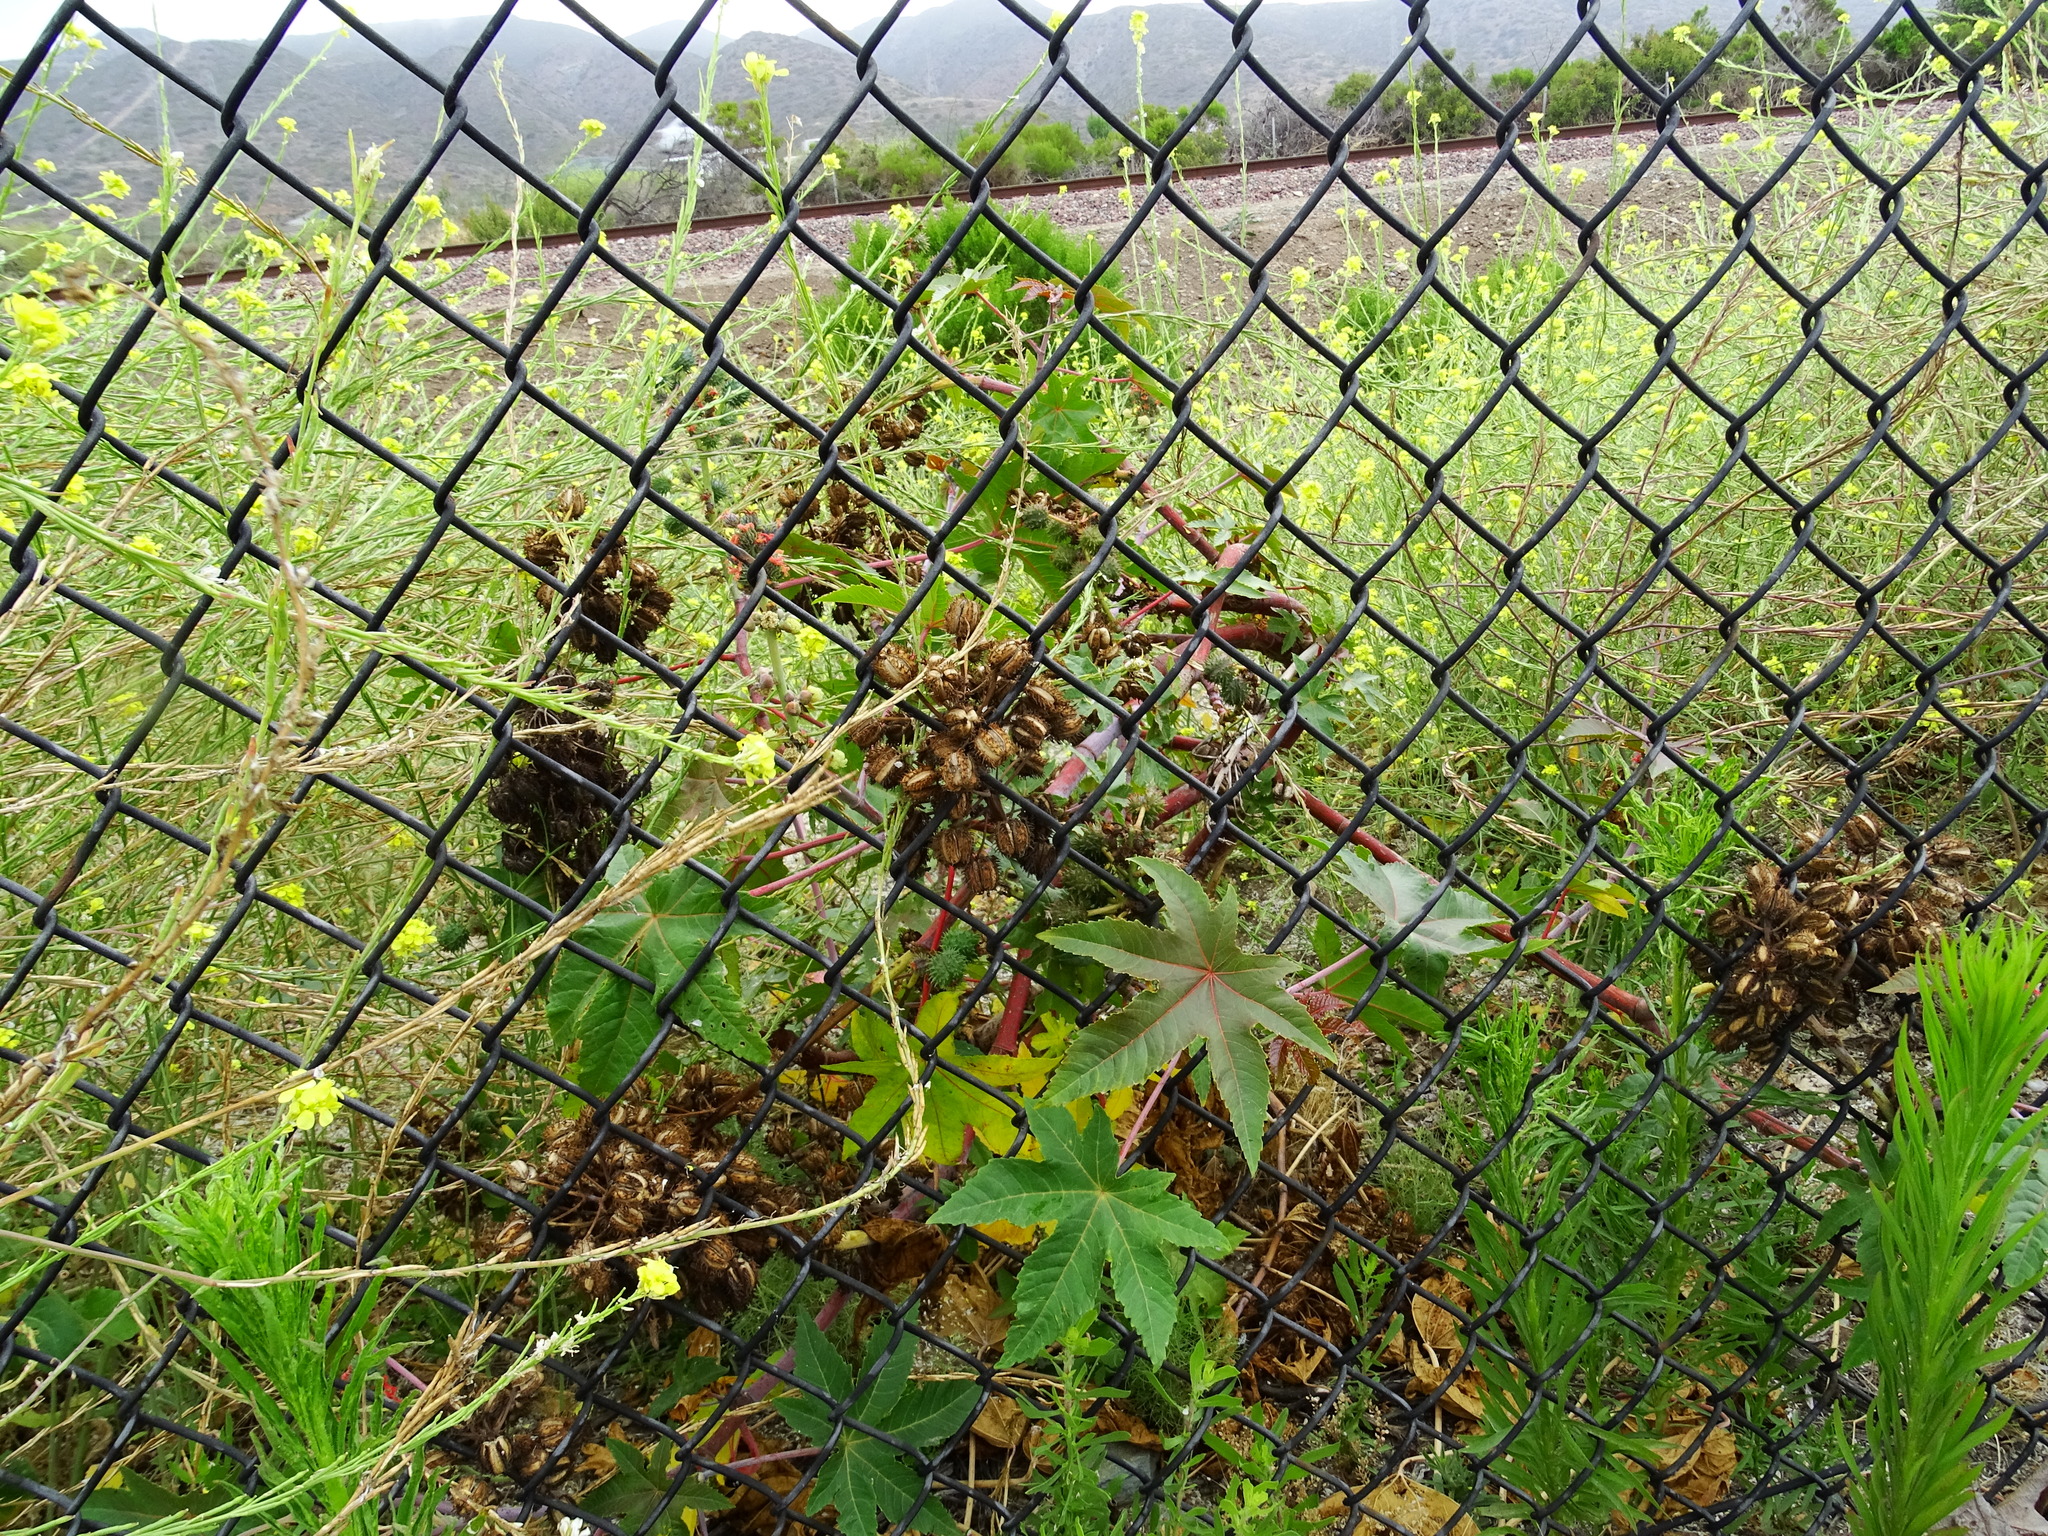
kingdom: Plantae
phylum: Tracheophyta
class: Magnoliopsida
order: Malpighiales
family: Euphorbiaceae
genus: Ricinus
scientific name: Ricinus communis
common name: Castor-oil-plant
